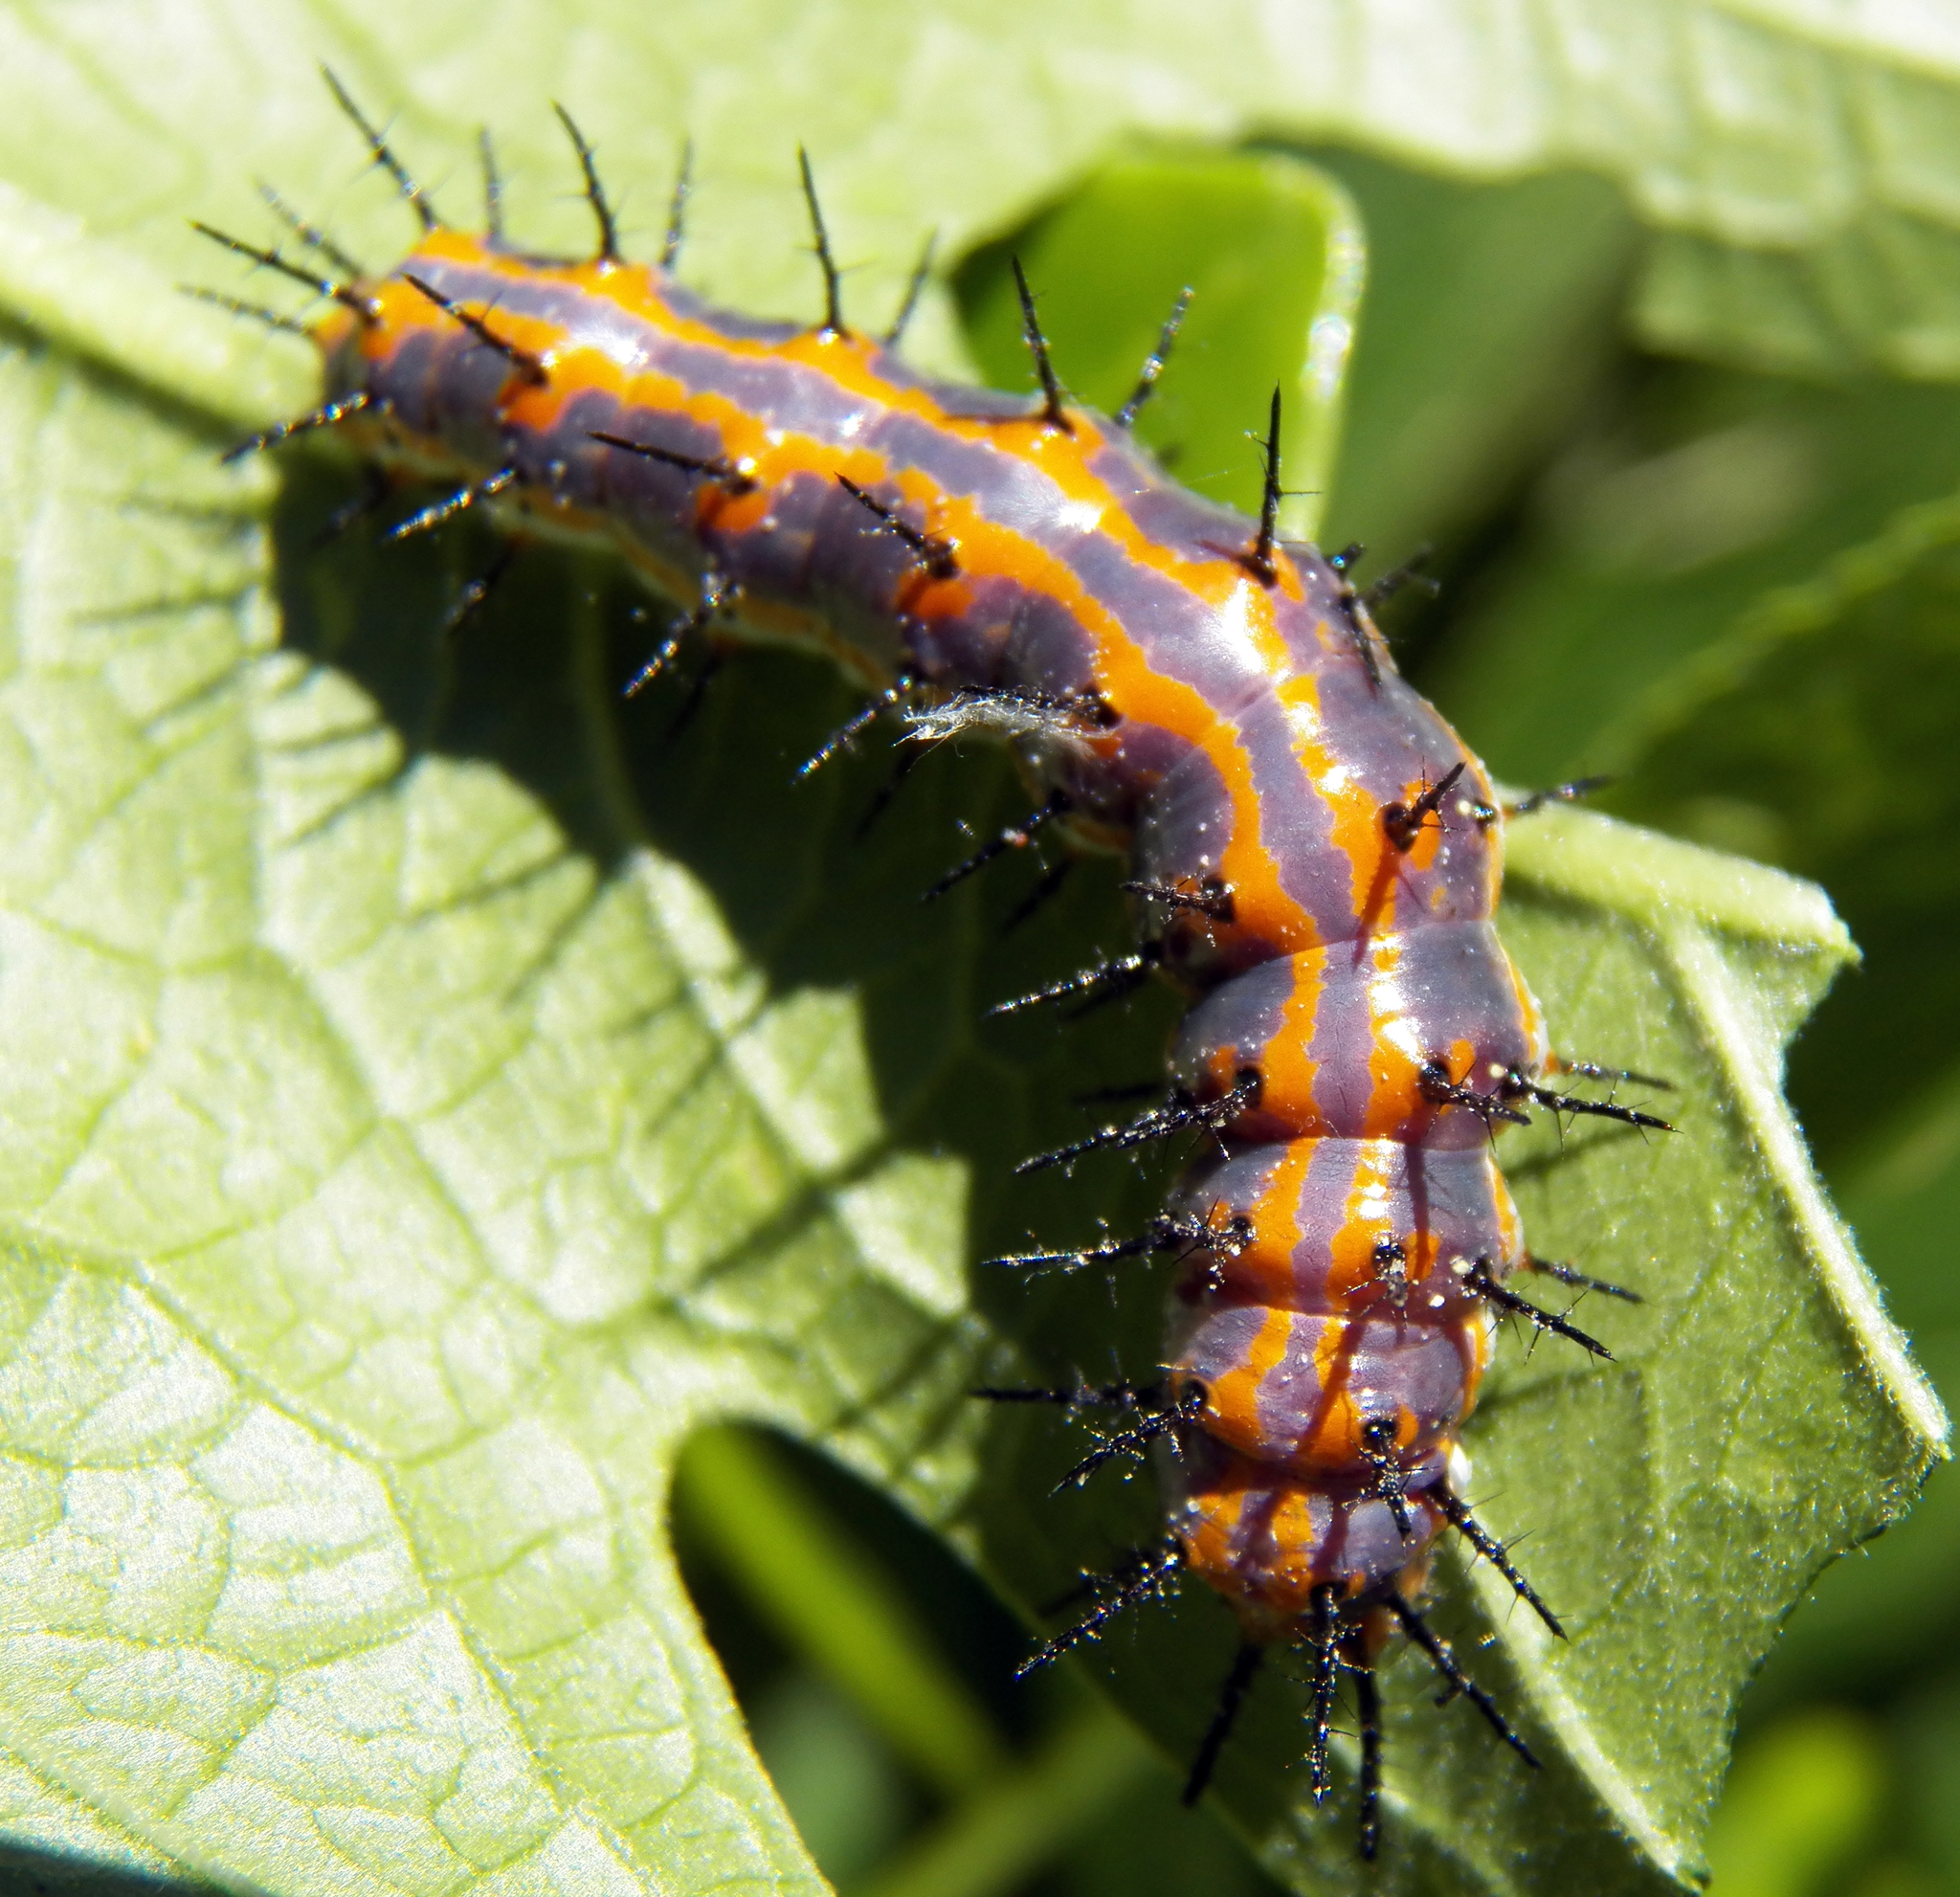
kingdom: Animalia
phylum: Arthropoda
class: Insecta
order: Lepidoptera
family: Nymphalidae
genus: Dione
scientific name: Dione vanillae
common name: Gulf fritillary
